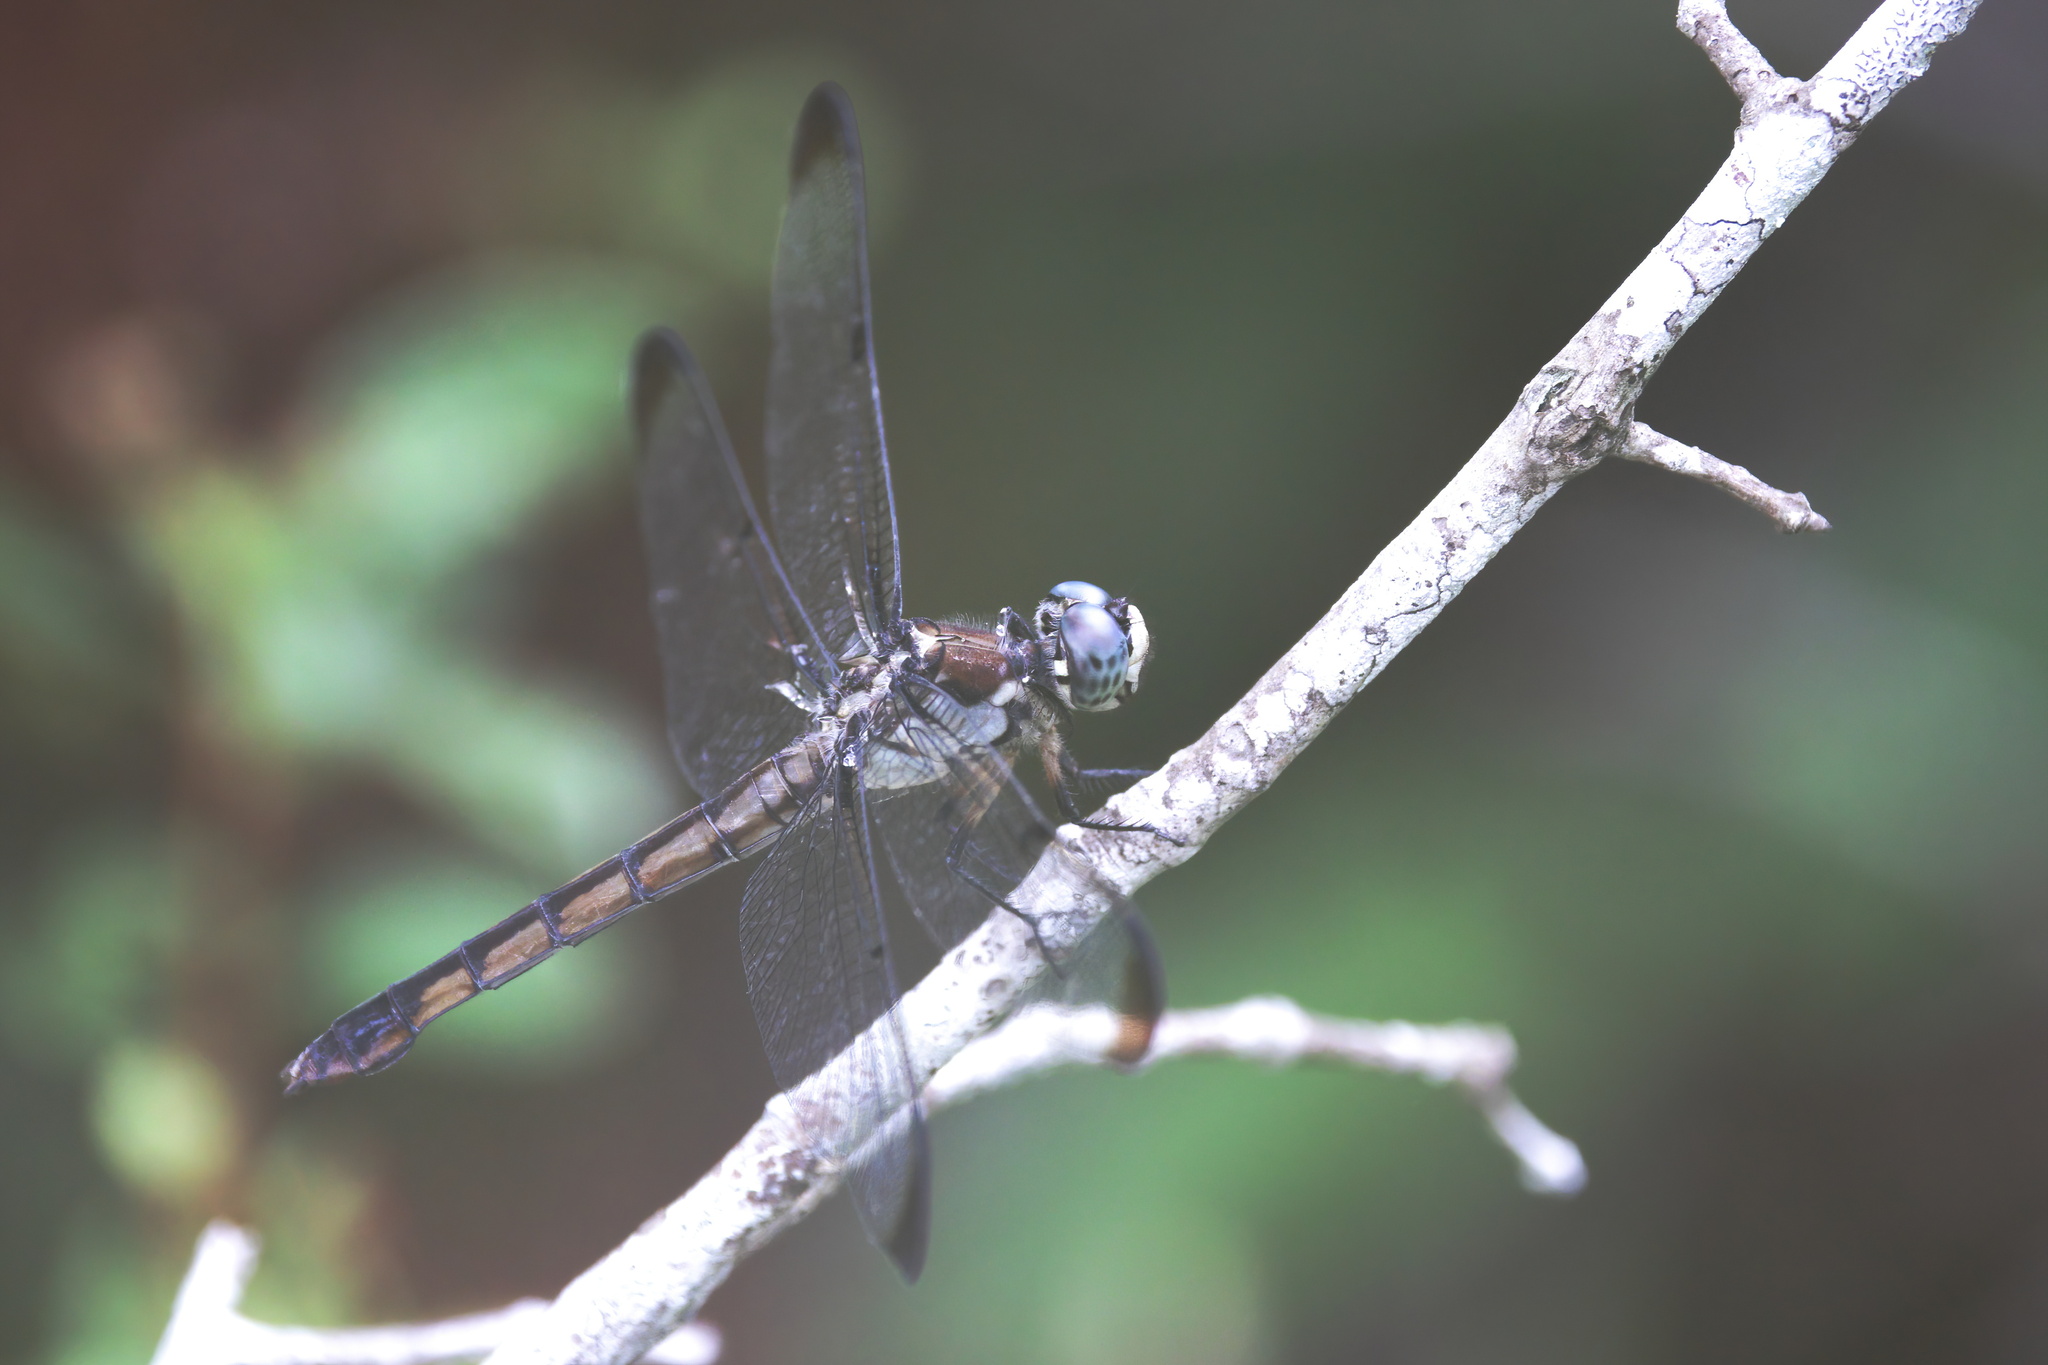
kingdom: Animalia
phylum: Arthropoda
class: Insecta
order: Odonata
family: Libellulidae
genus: Libellula
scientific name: Libellula vibrans
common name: Great blue skimmer
